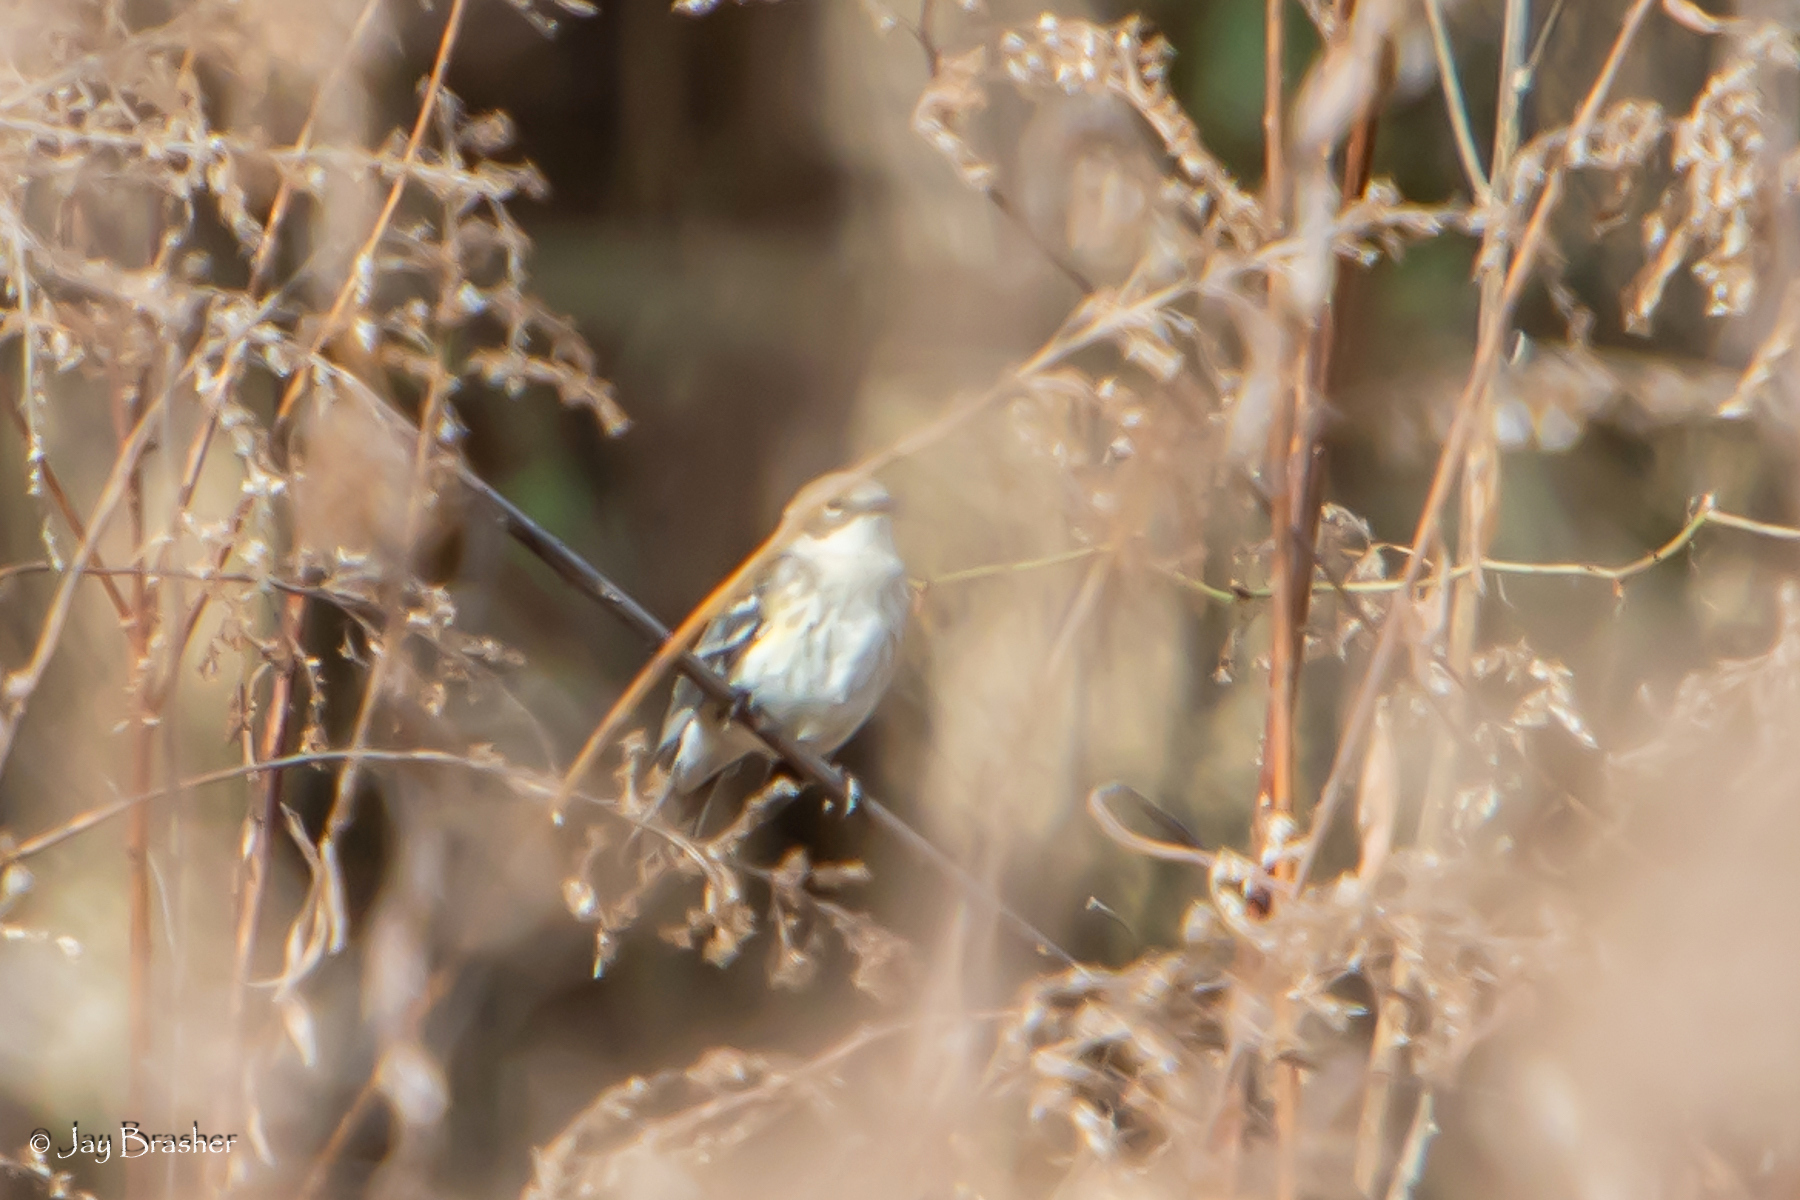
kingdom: Animalia
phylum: Chordata
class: Aves
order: Passeriformes
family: Parulidae
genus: Setophaga
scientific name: Setophaga coronata
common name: Myrtle warbler
